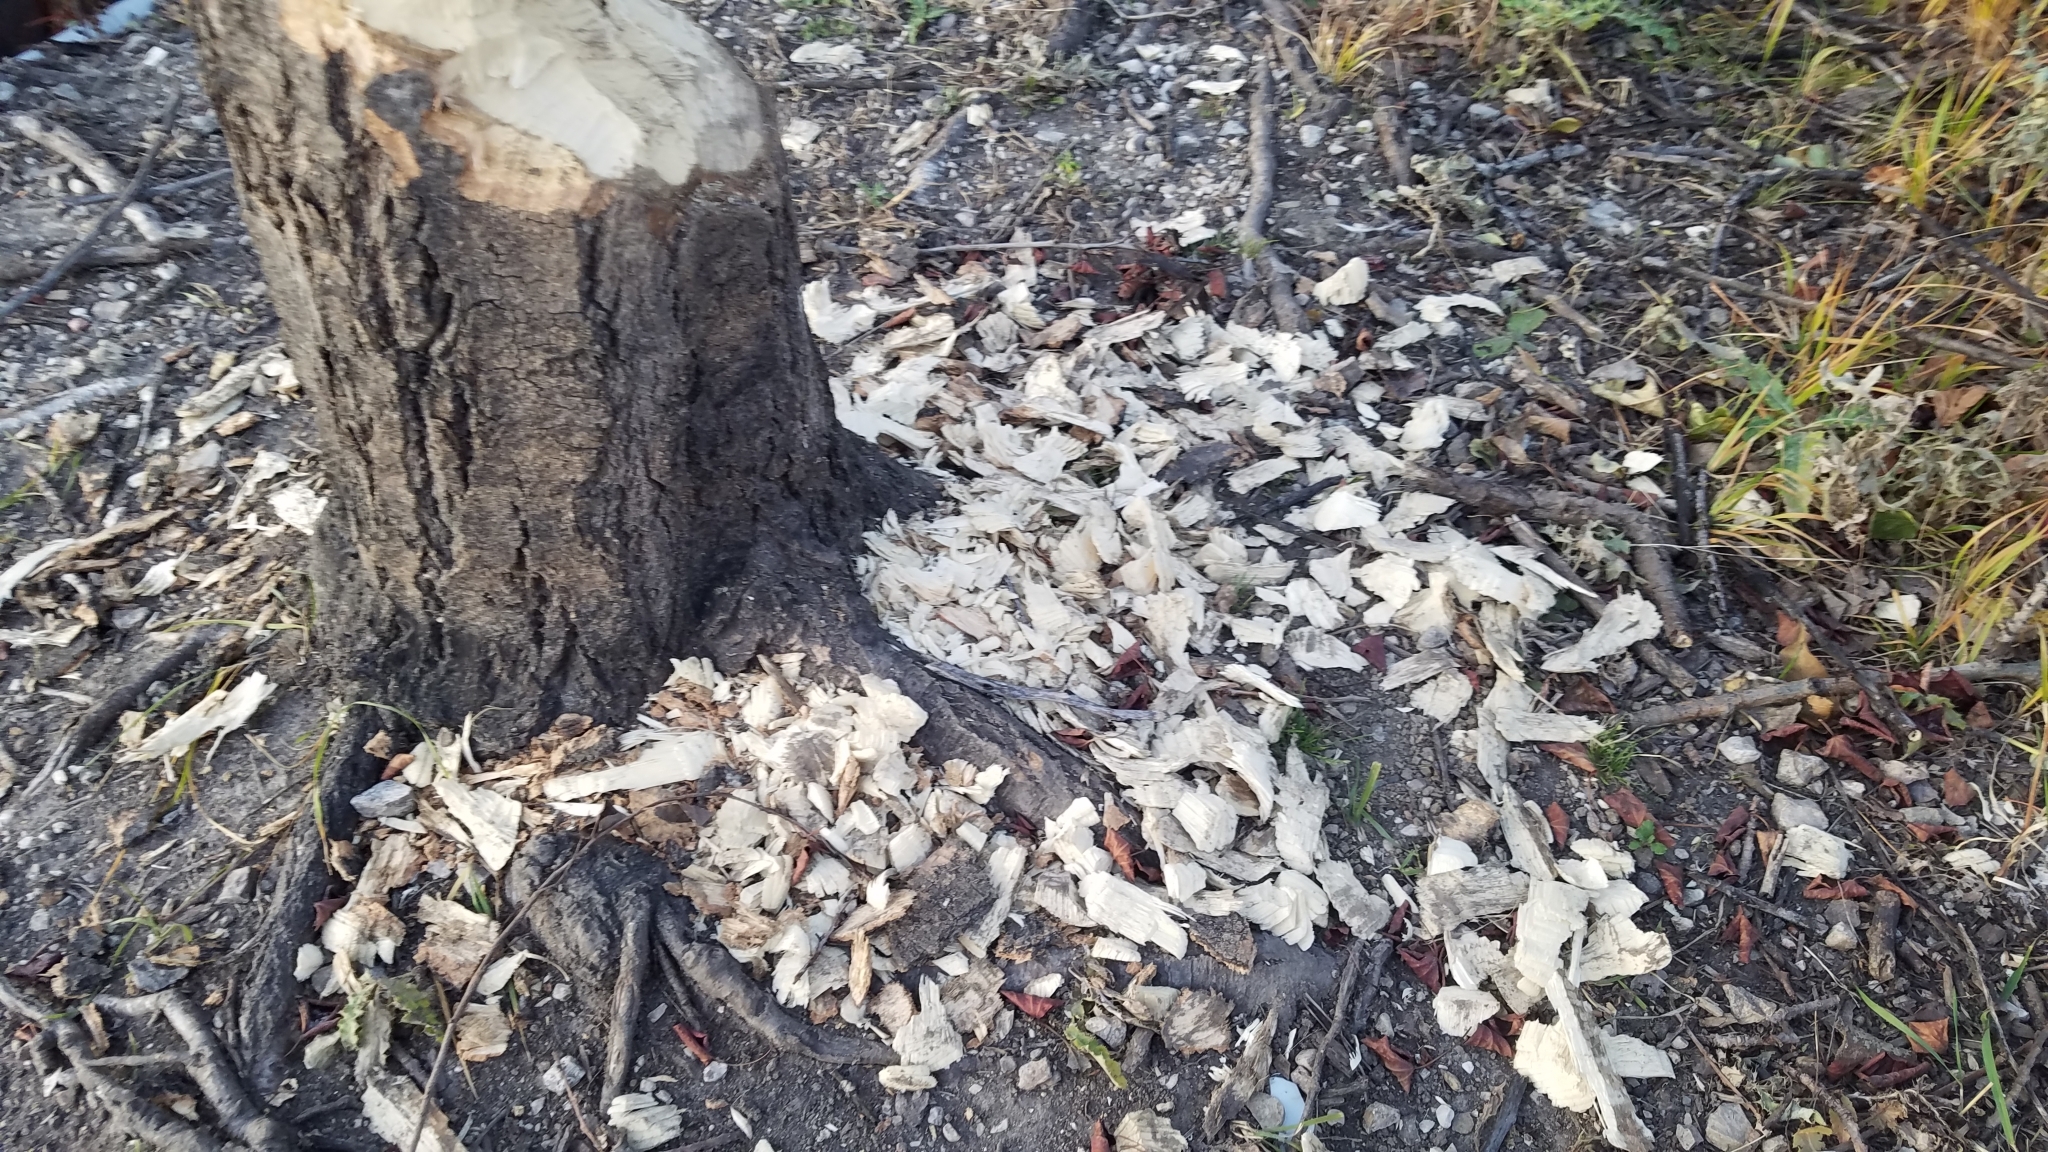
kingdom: Animalia
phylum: Chordata
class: Mammalia
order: Rodentia
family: Castoridae
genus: Castor
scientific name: Castor canadensis
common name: American beaver
